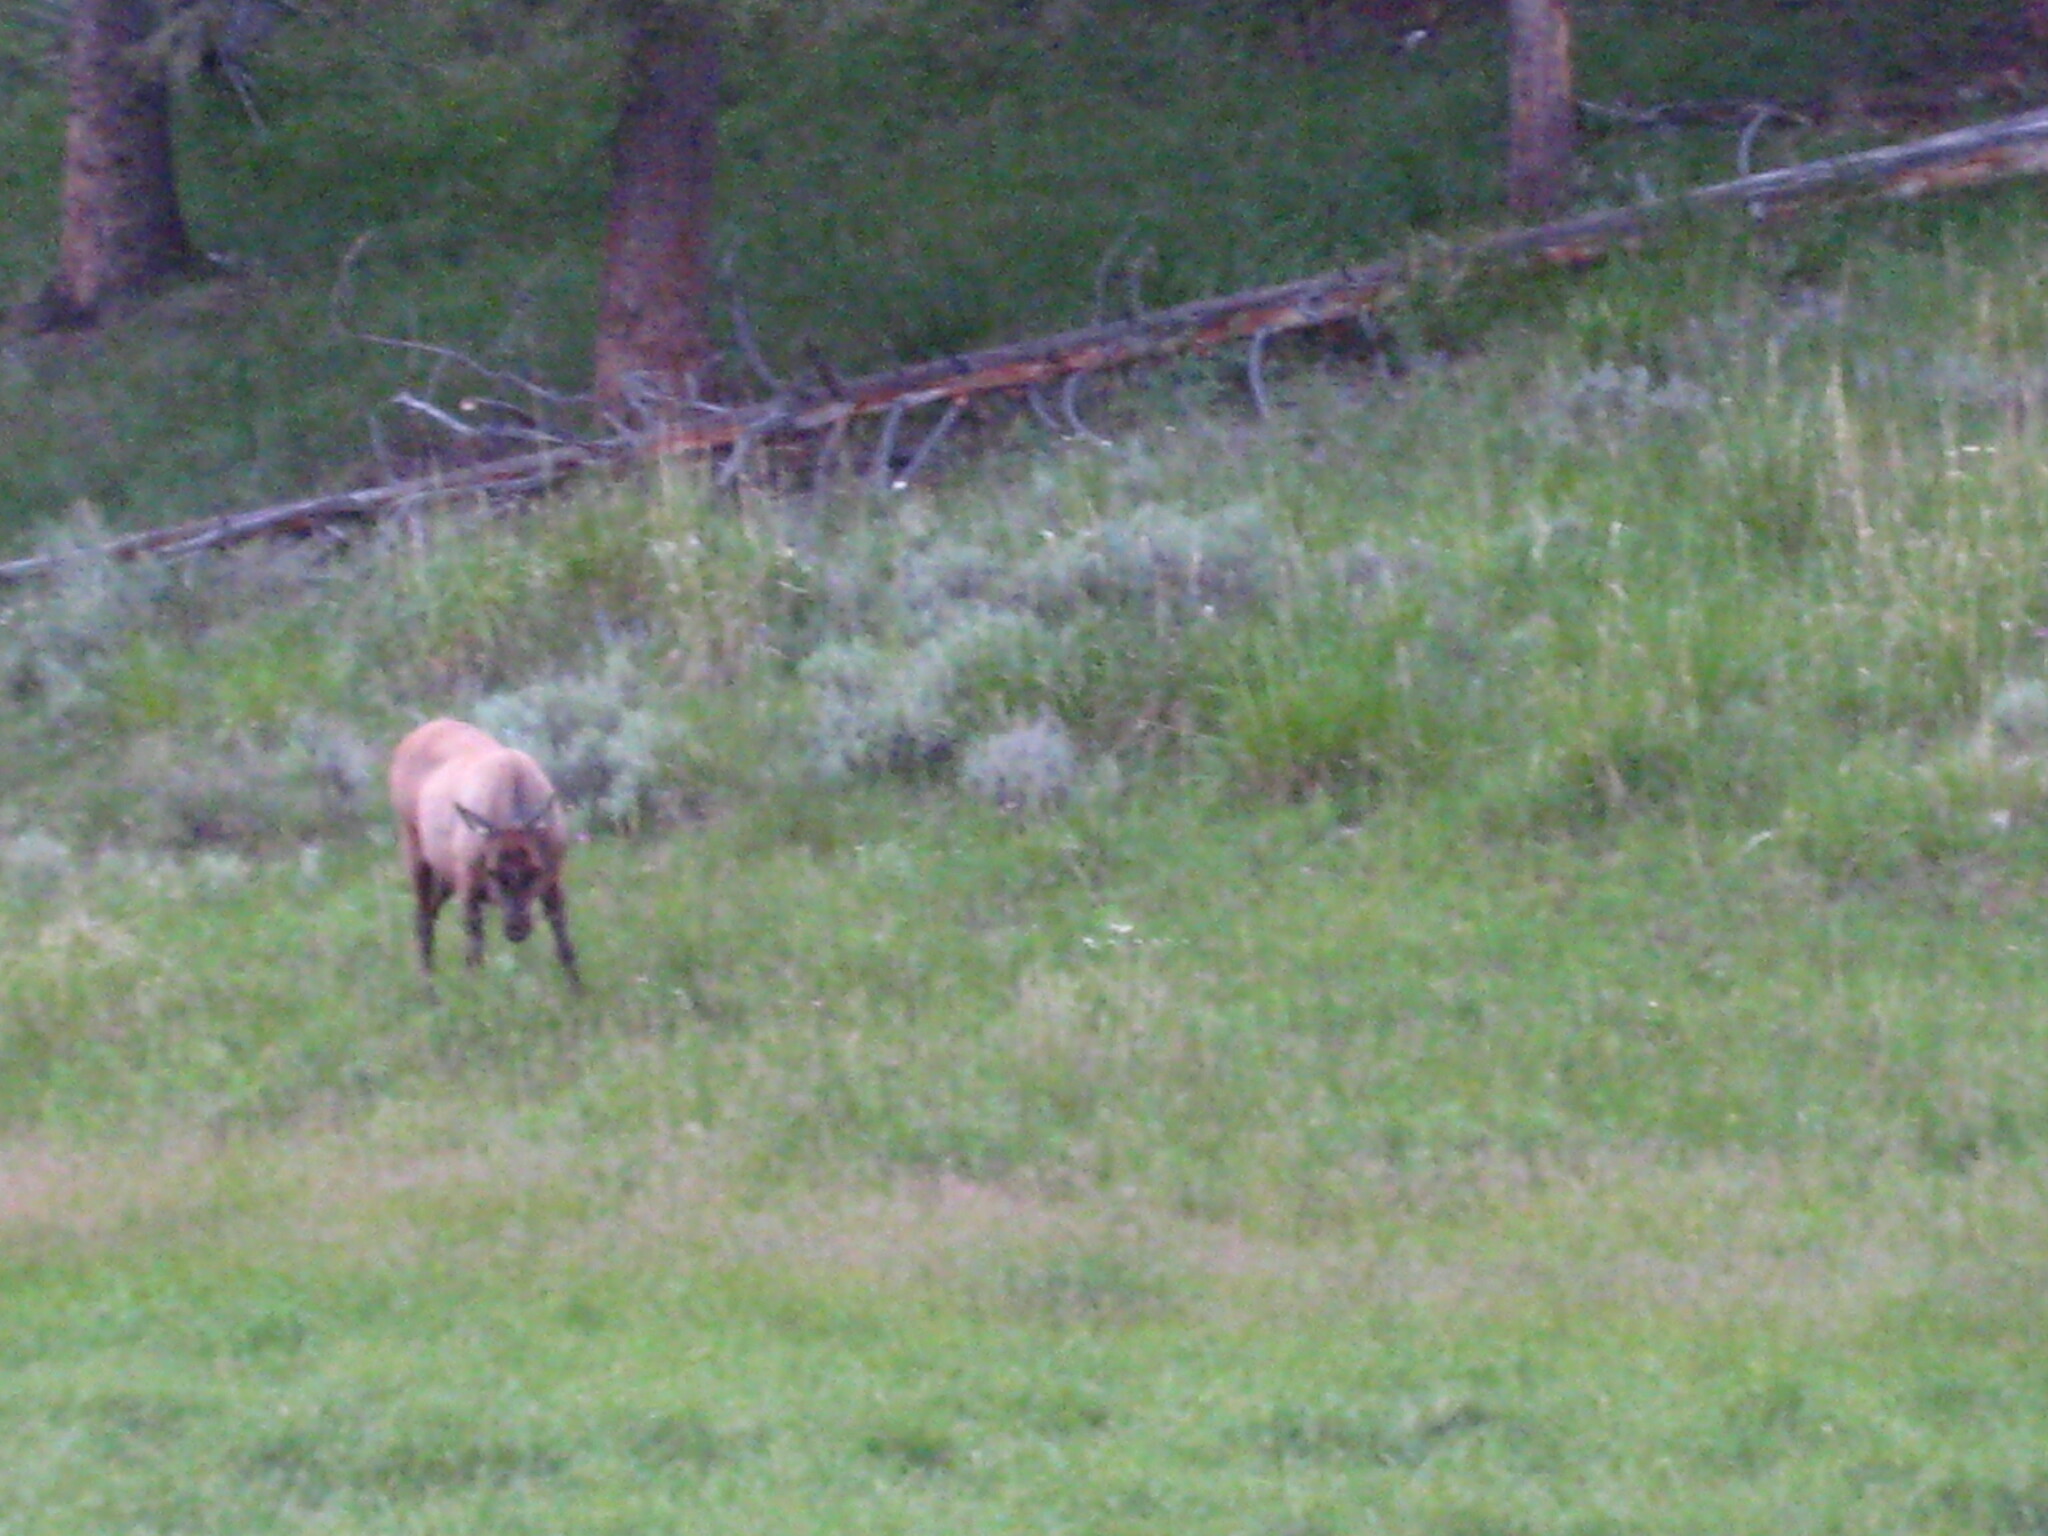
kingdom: Animalia
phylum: Chordata
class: Mammalia
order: Artiodactyla
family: Cervidae
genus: Cervus
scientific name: Cervus elaphus
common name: Red deer
